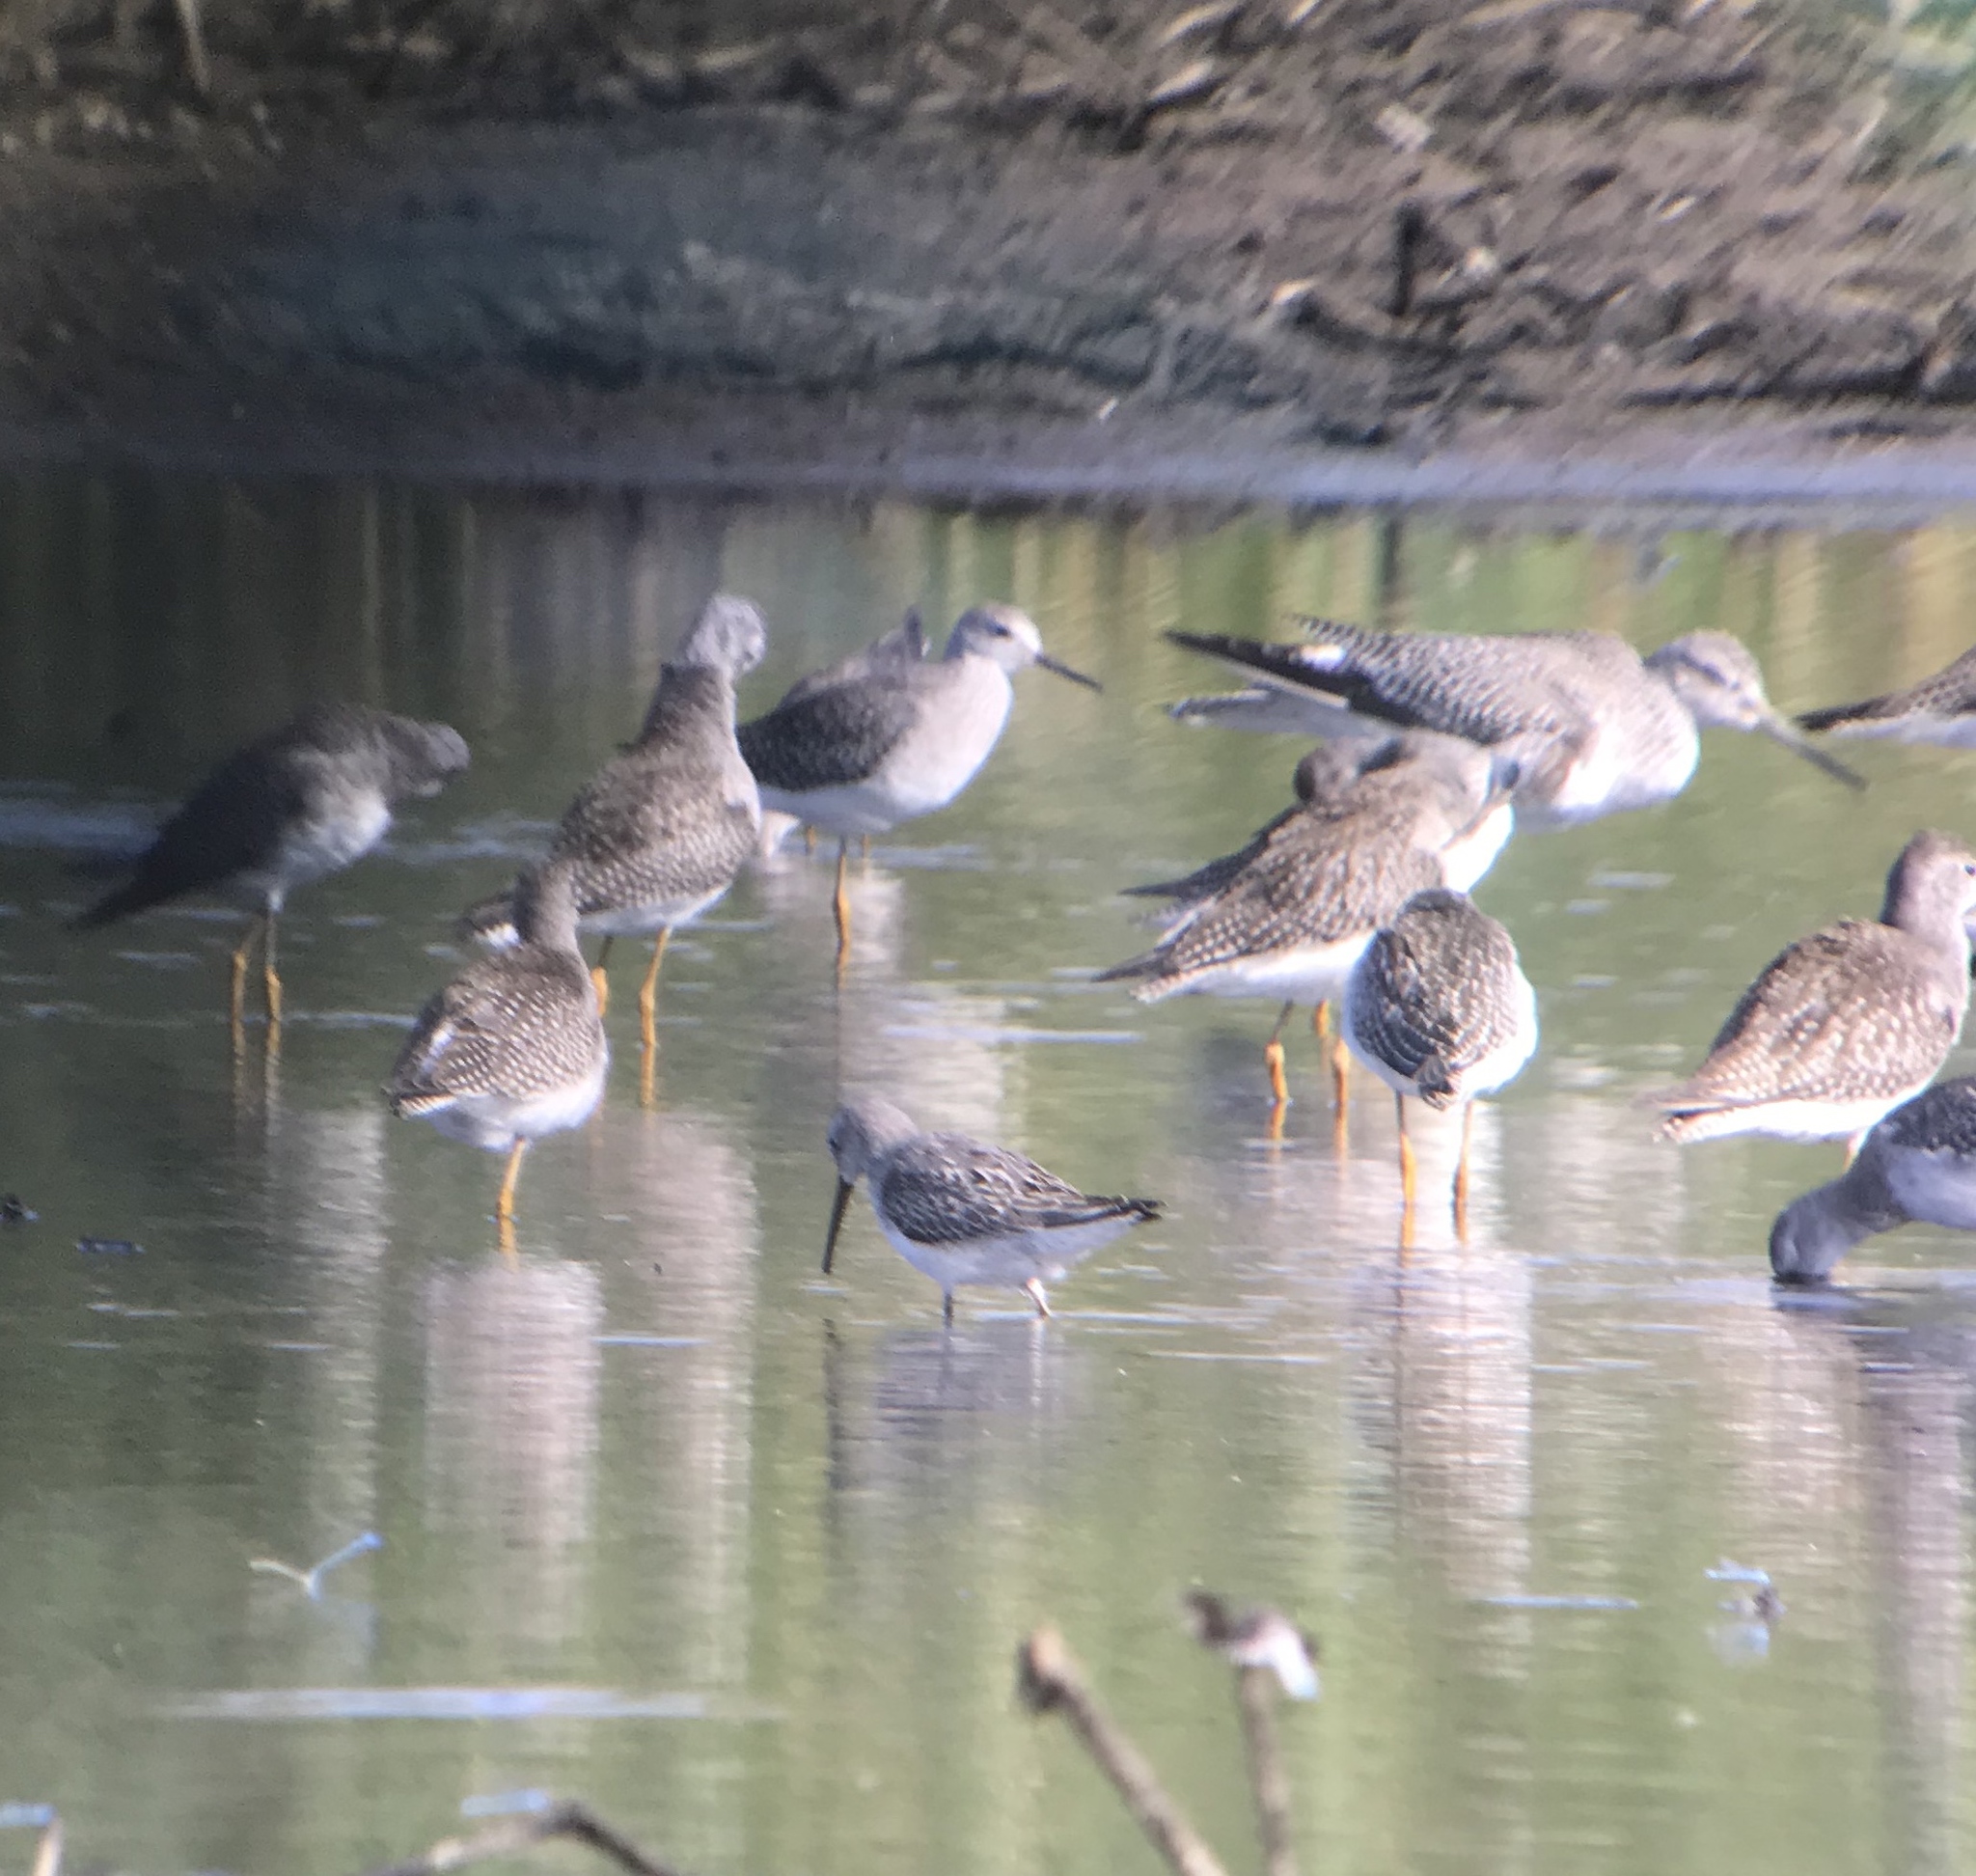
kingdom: Animalia
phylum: Chordata
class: Aves
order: Charadriiformes
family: Scolopacidae
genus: Calidris
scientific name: Calidris himantopus
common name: Stilt sandpiper
